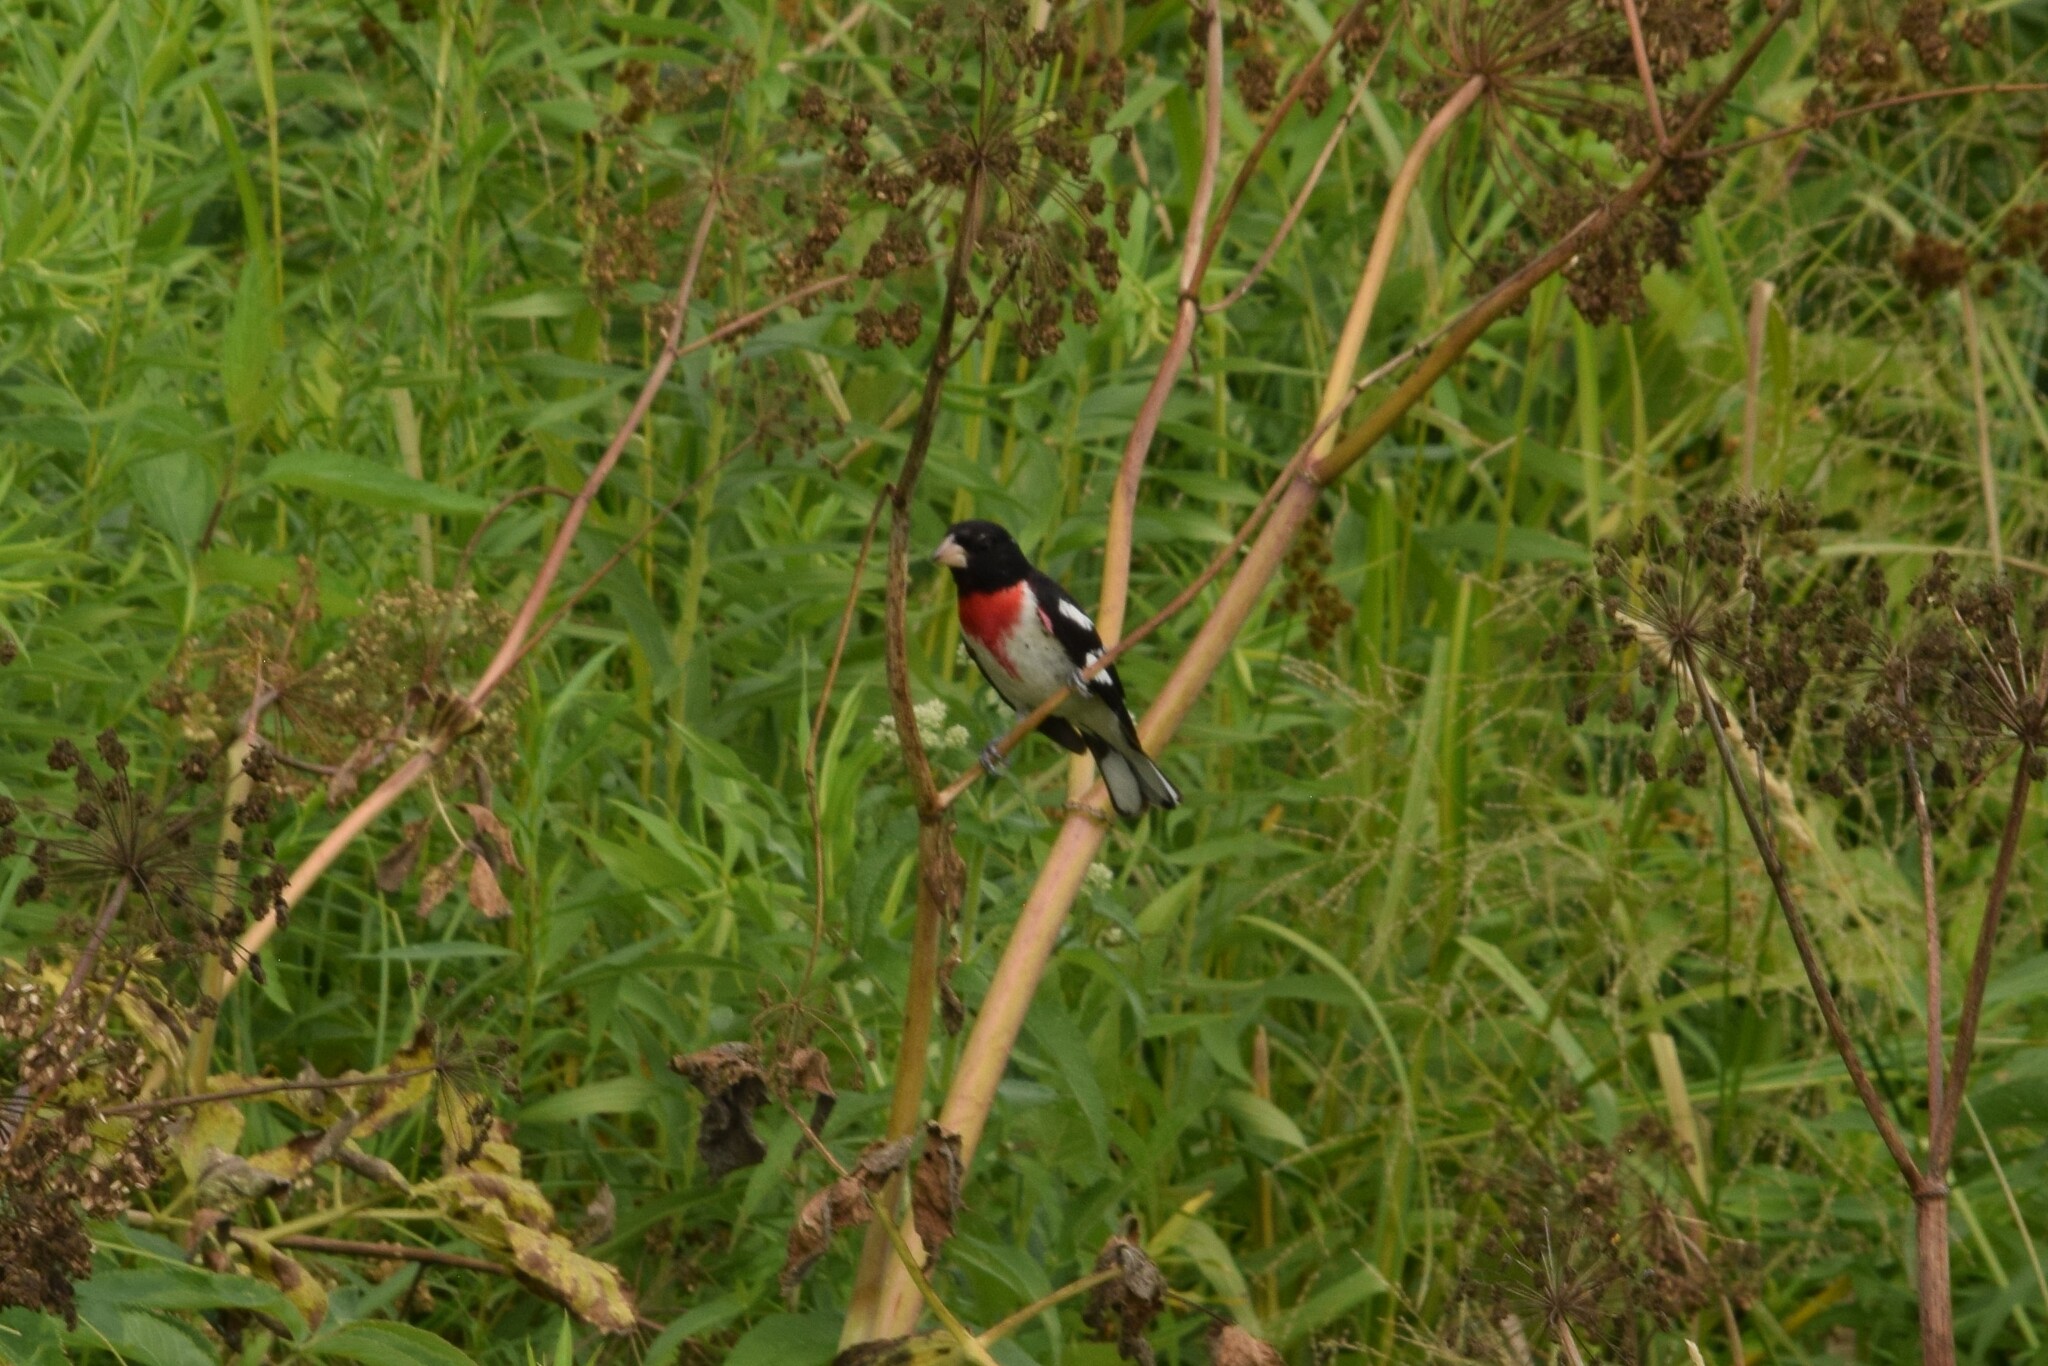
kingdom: Animalia
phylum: Chordata
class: Aves
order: Passeriformes
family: Cardinalidae
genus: Pheucticus
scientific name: Pheucticus ludovicianus
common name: Rose-breasted grosbeak
